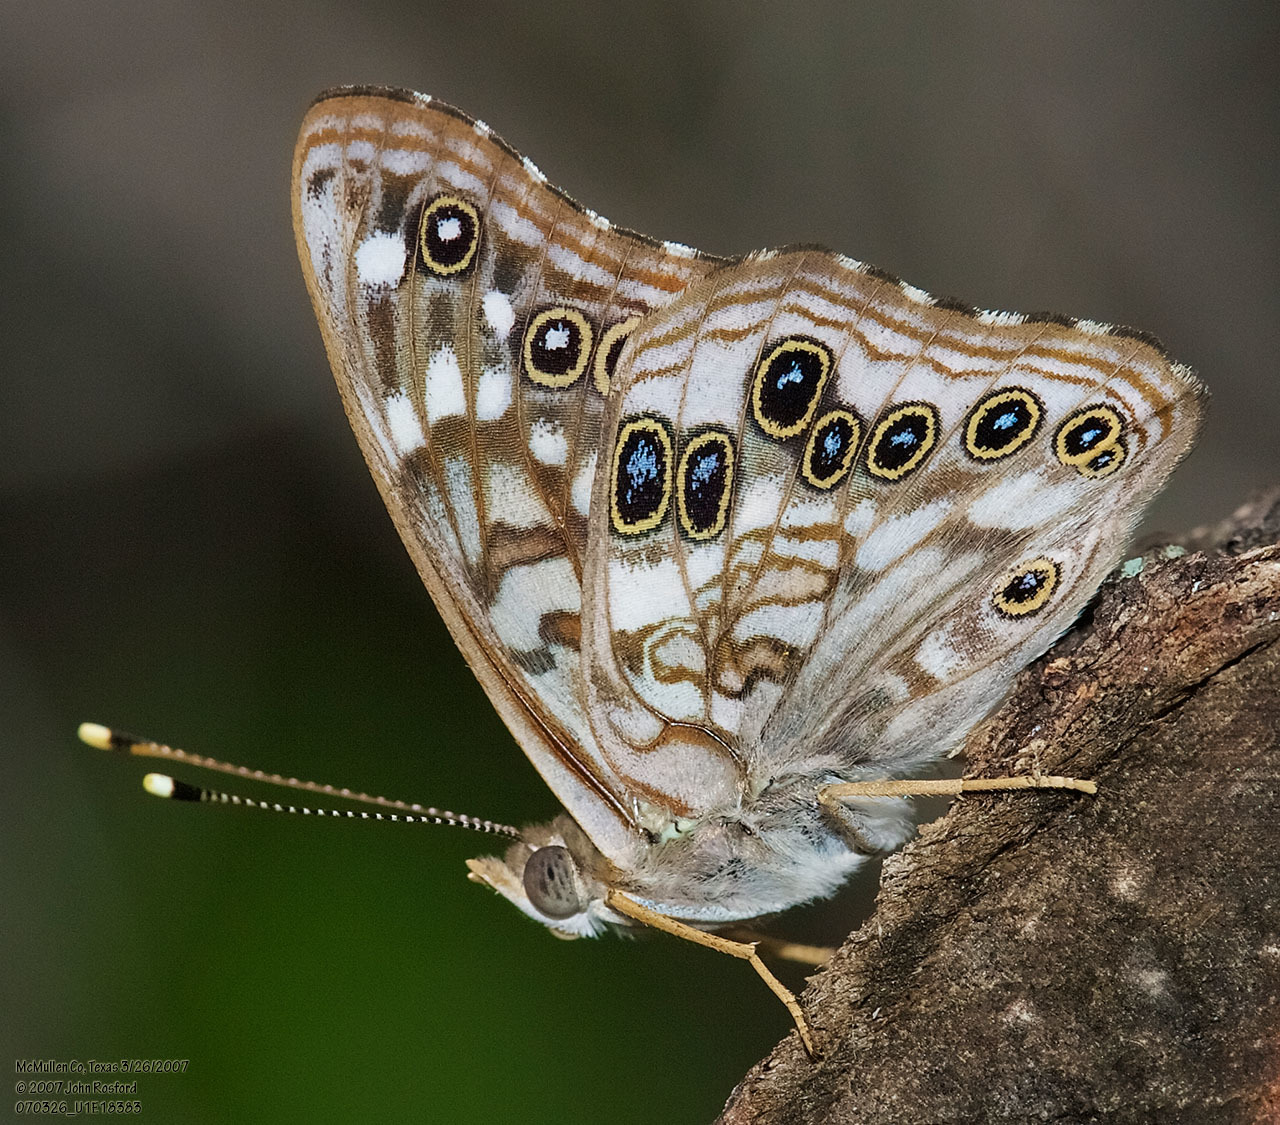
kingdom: Animalia
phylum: Arthropoda
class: Insecta
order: Lepidoptera
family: Nymphalidae
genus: Asterocampa
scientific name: Asterocampa celtis
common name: Hackberry emperor
